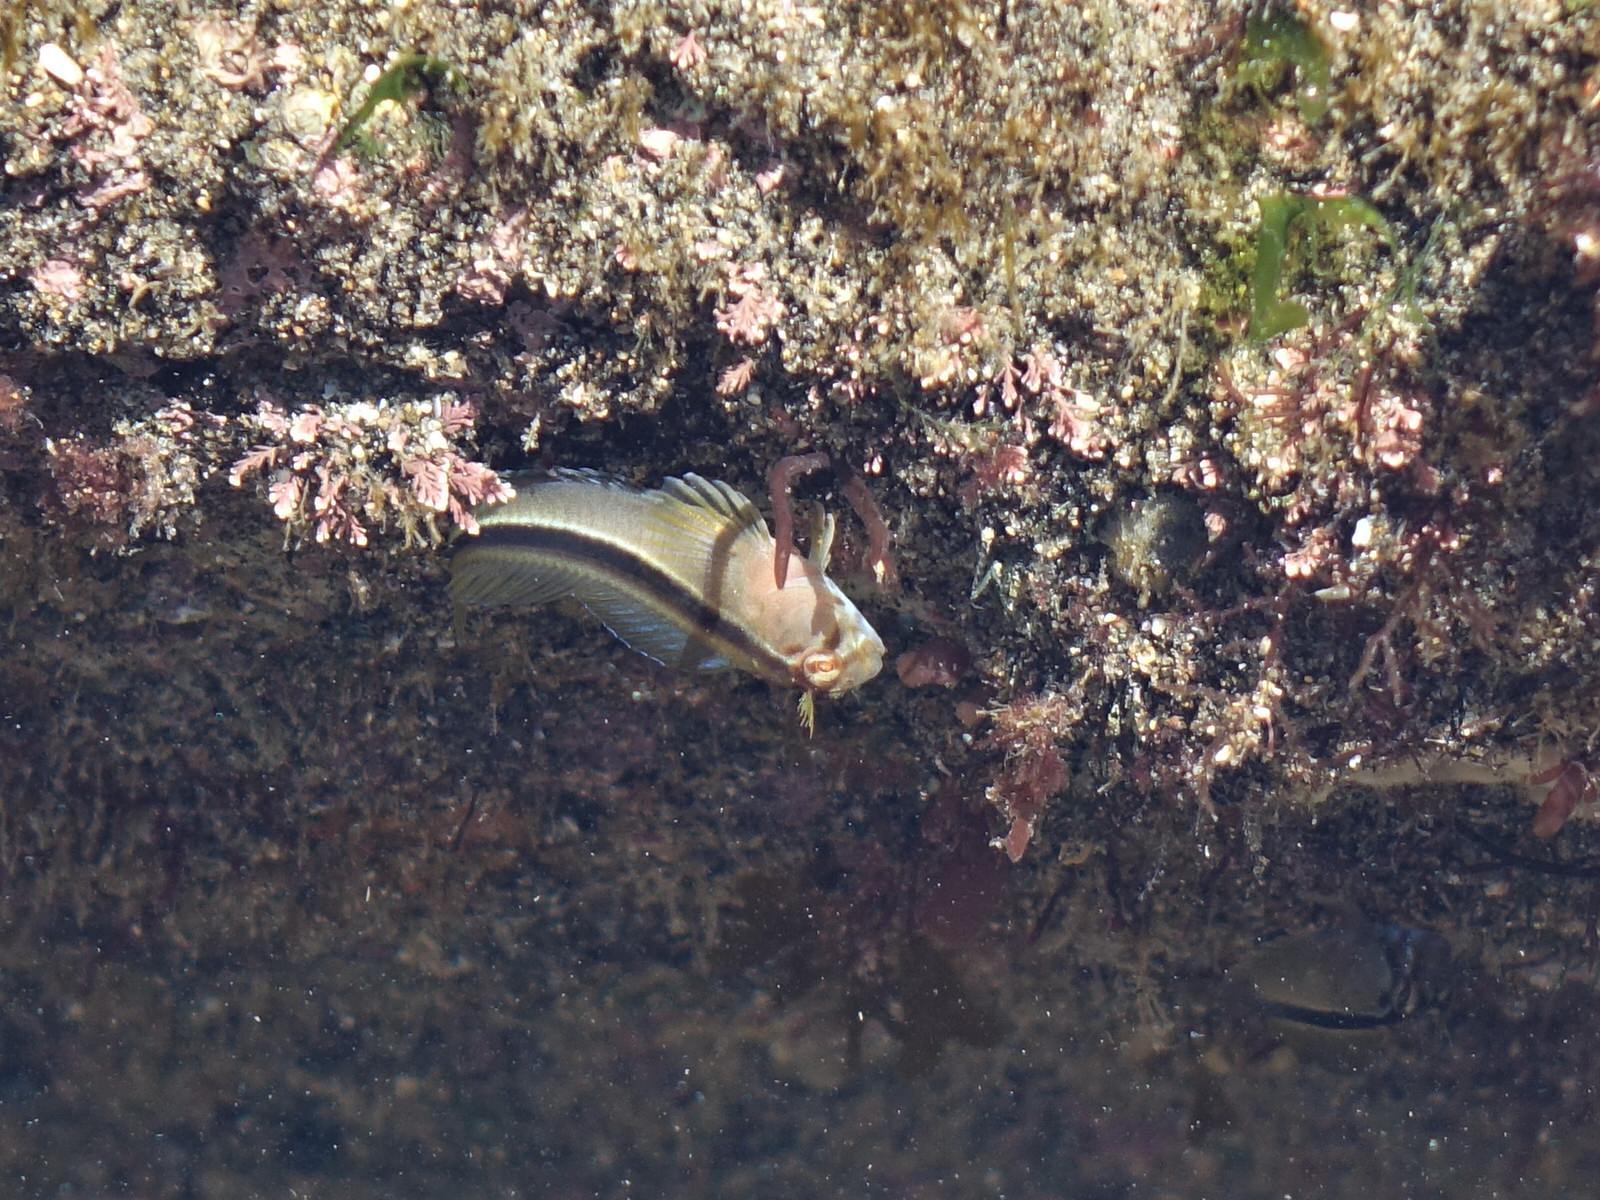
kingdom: Animalia
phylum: Chordata
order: Perciformes
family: Blenniidae
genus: Parablennius
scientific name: Parablennius laticlavius
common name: Crested blenny
